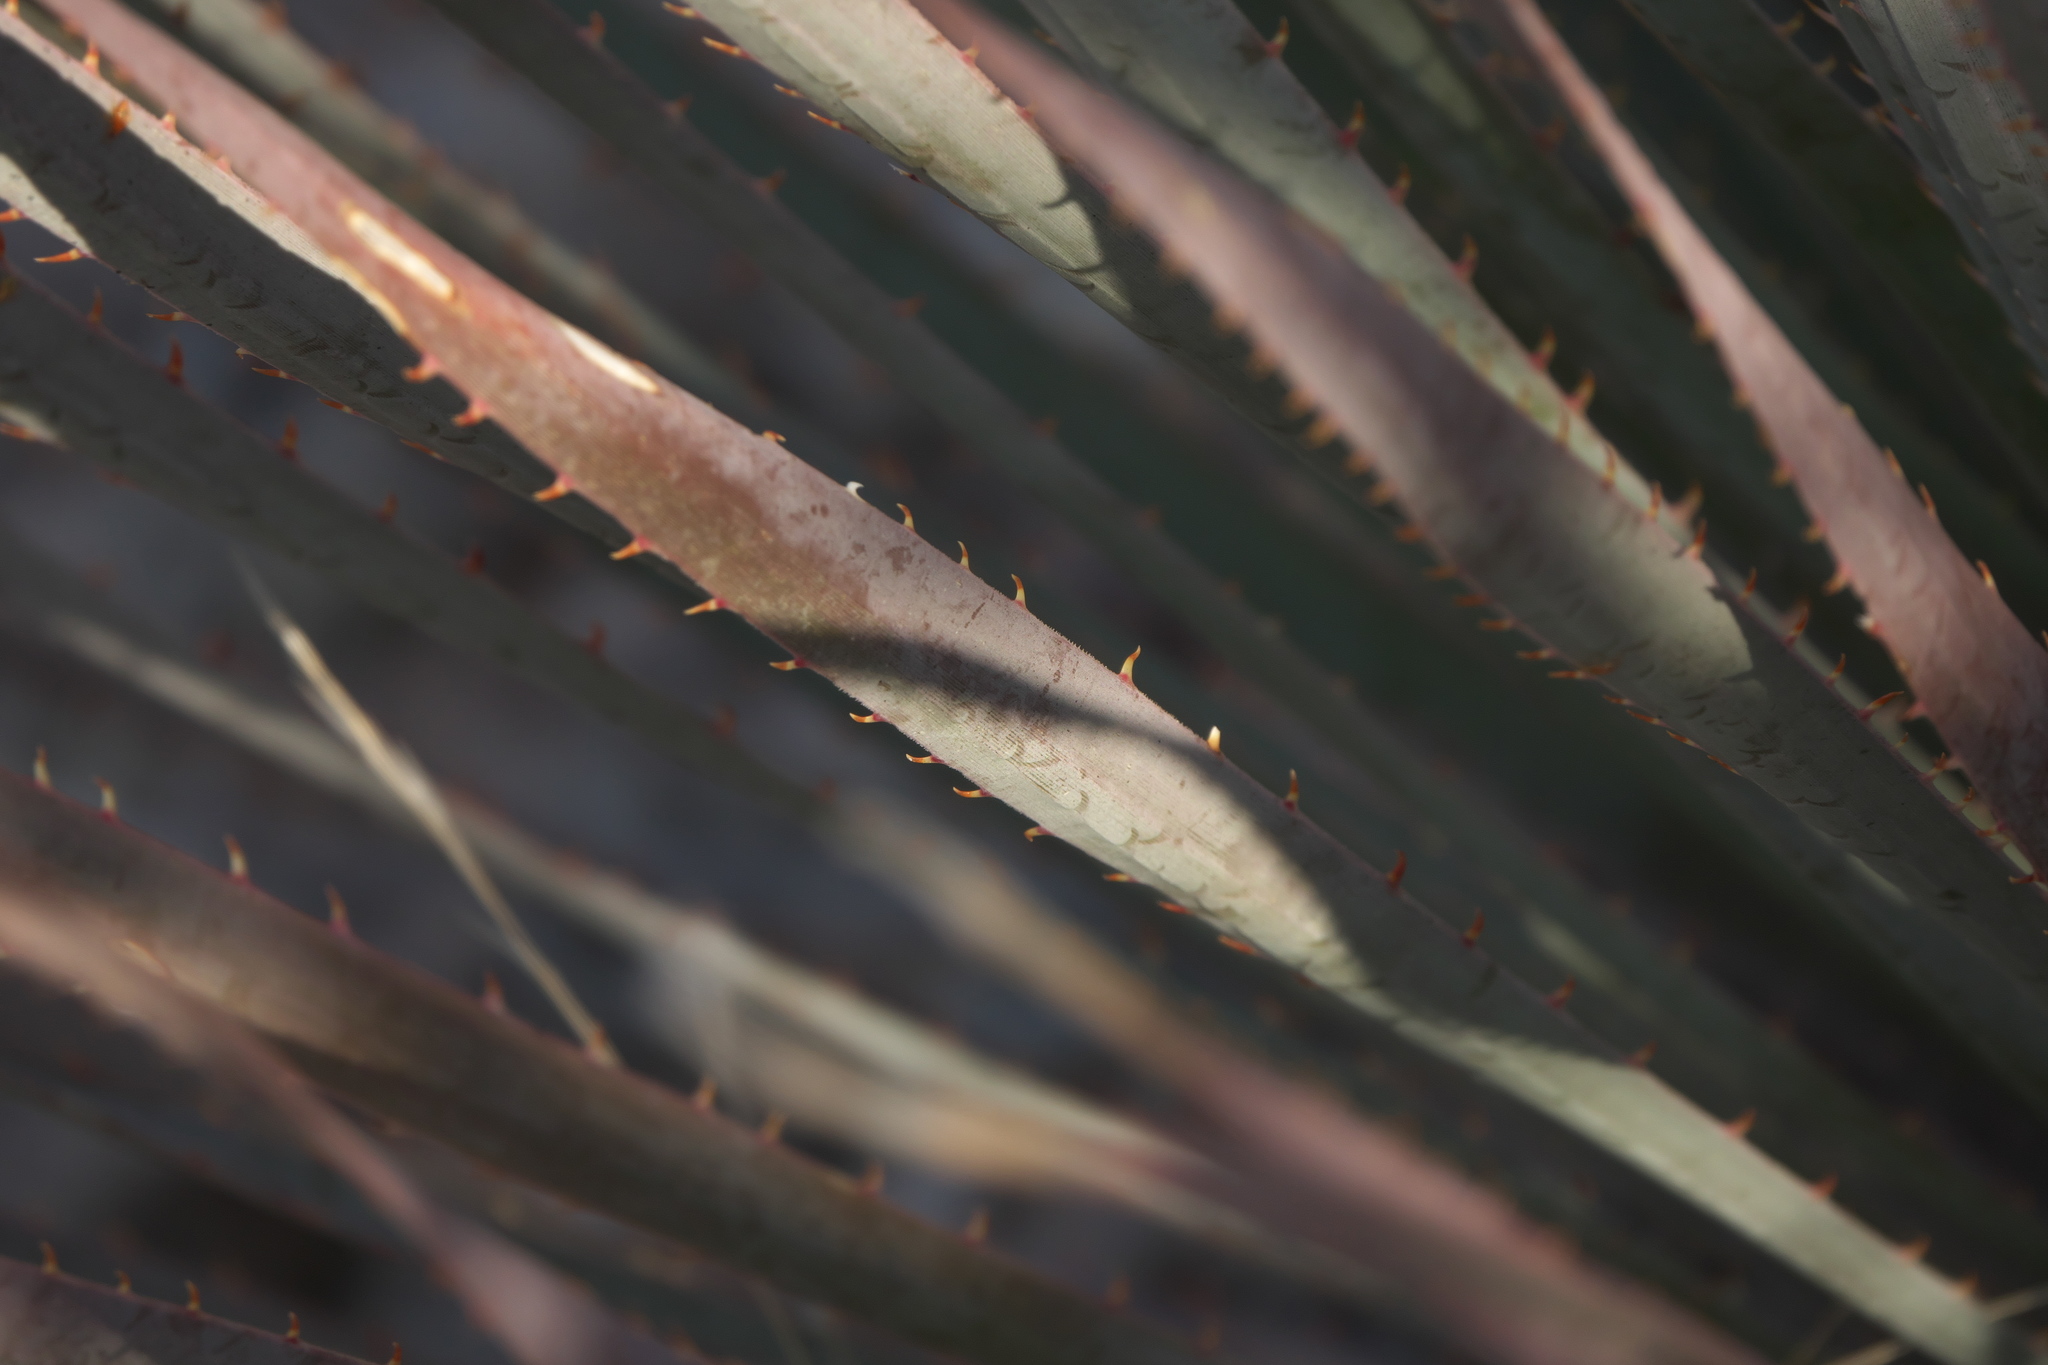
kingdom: Plantae
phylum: Tracheophyta
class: Liliopsida
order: Asparagales
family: Asparagaceae
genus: Dasylirion
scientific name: Dasylirion wheeleri
